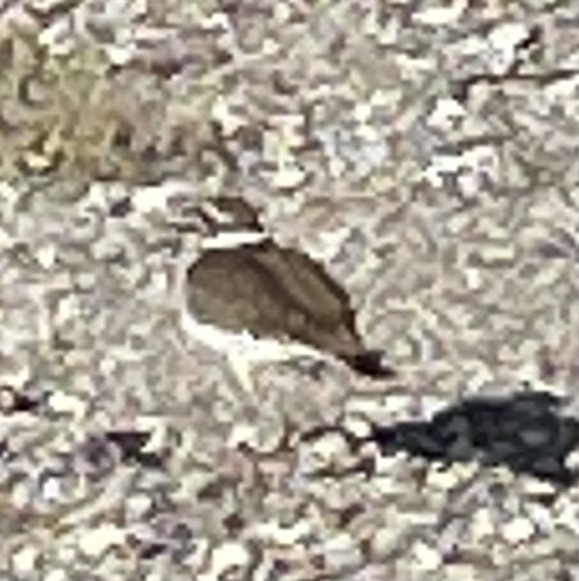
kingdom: Animalia
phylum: Chordata
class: Aves
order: Charadriiformes
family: Charadriidae
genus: Charadrius
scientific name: Charadrius vociferus
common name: Killdeer
